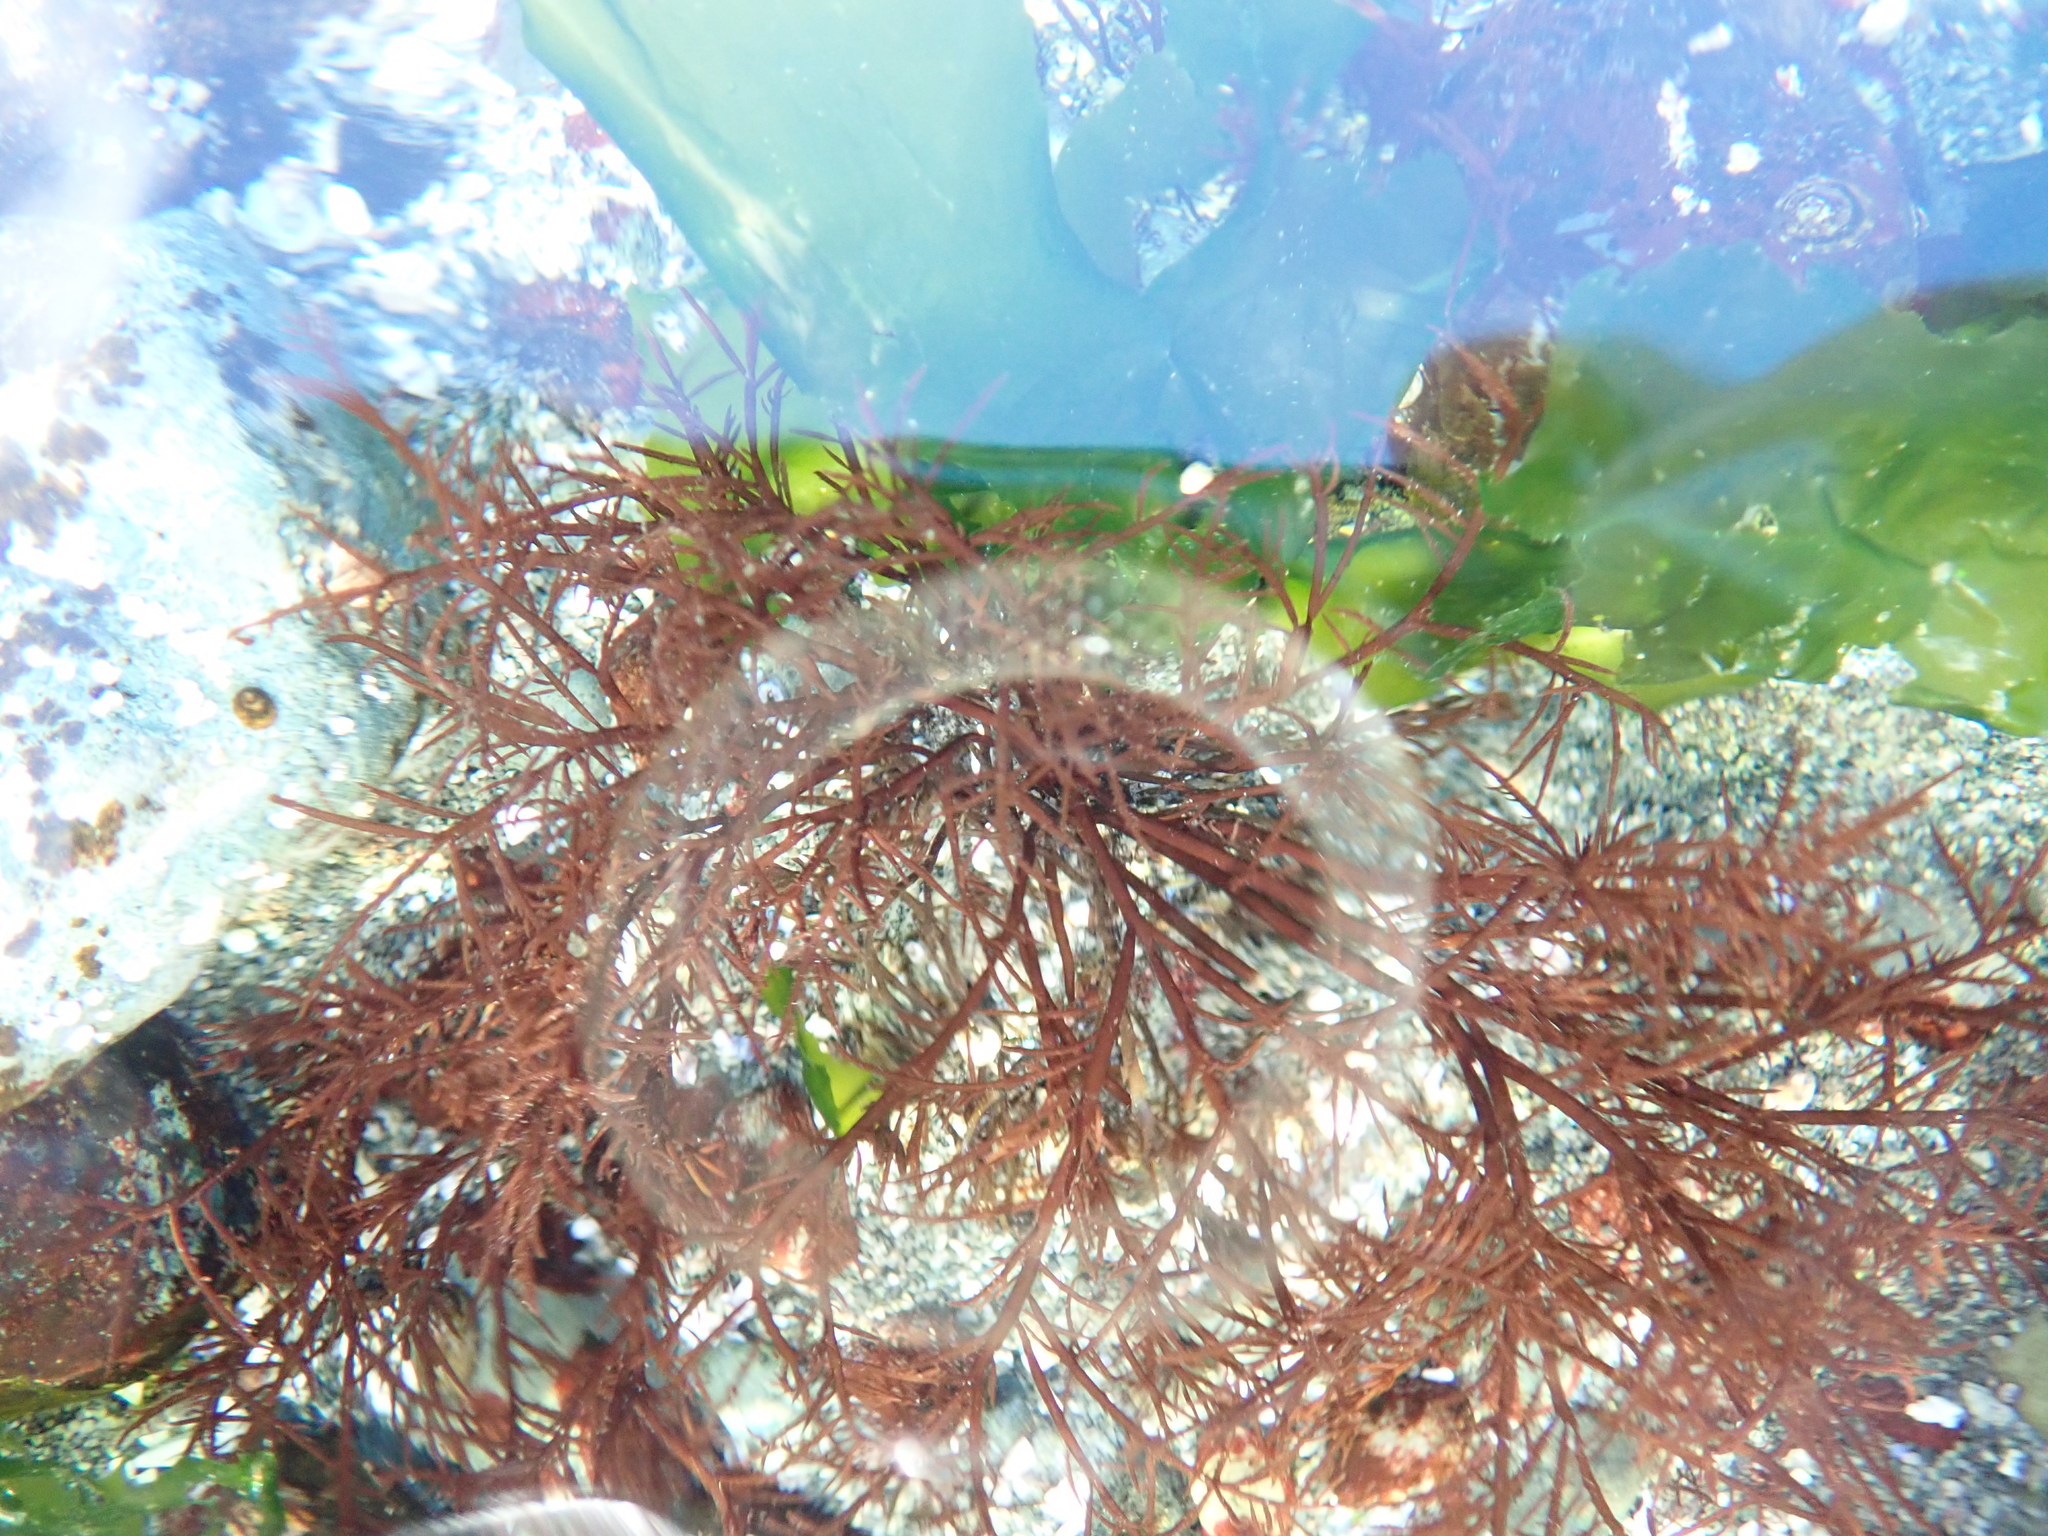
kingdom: Plantae
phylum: Rhodophyta
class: Florideophyceae
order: Gigartinales
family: Dumontiaceae
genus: Cryptosiphonia
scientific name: Cryptosiphonia woodii
